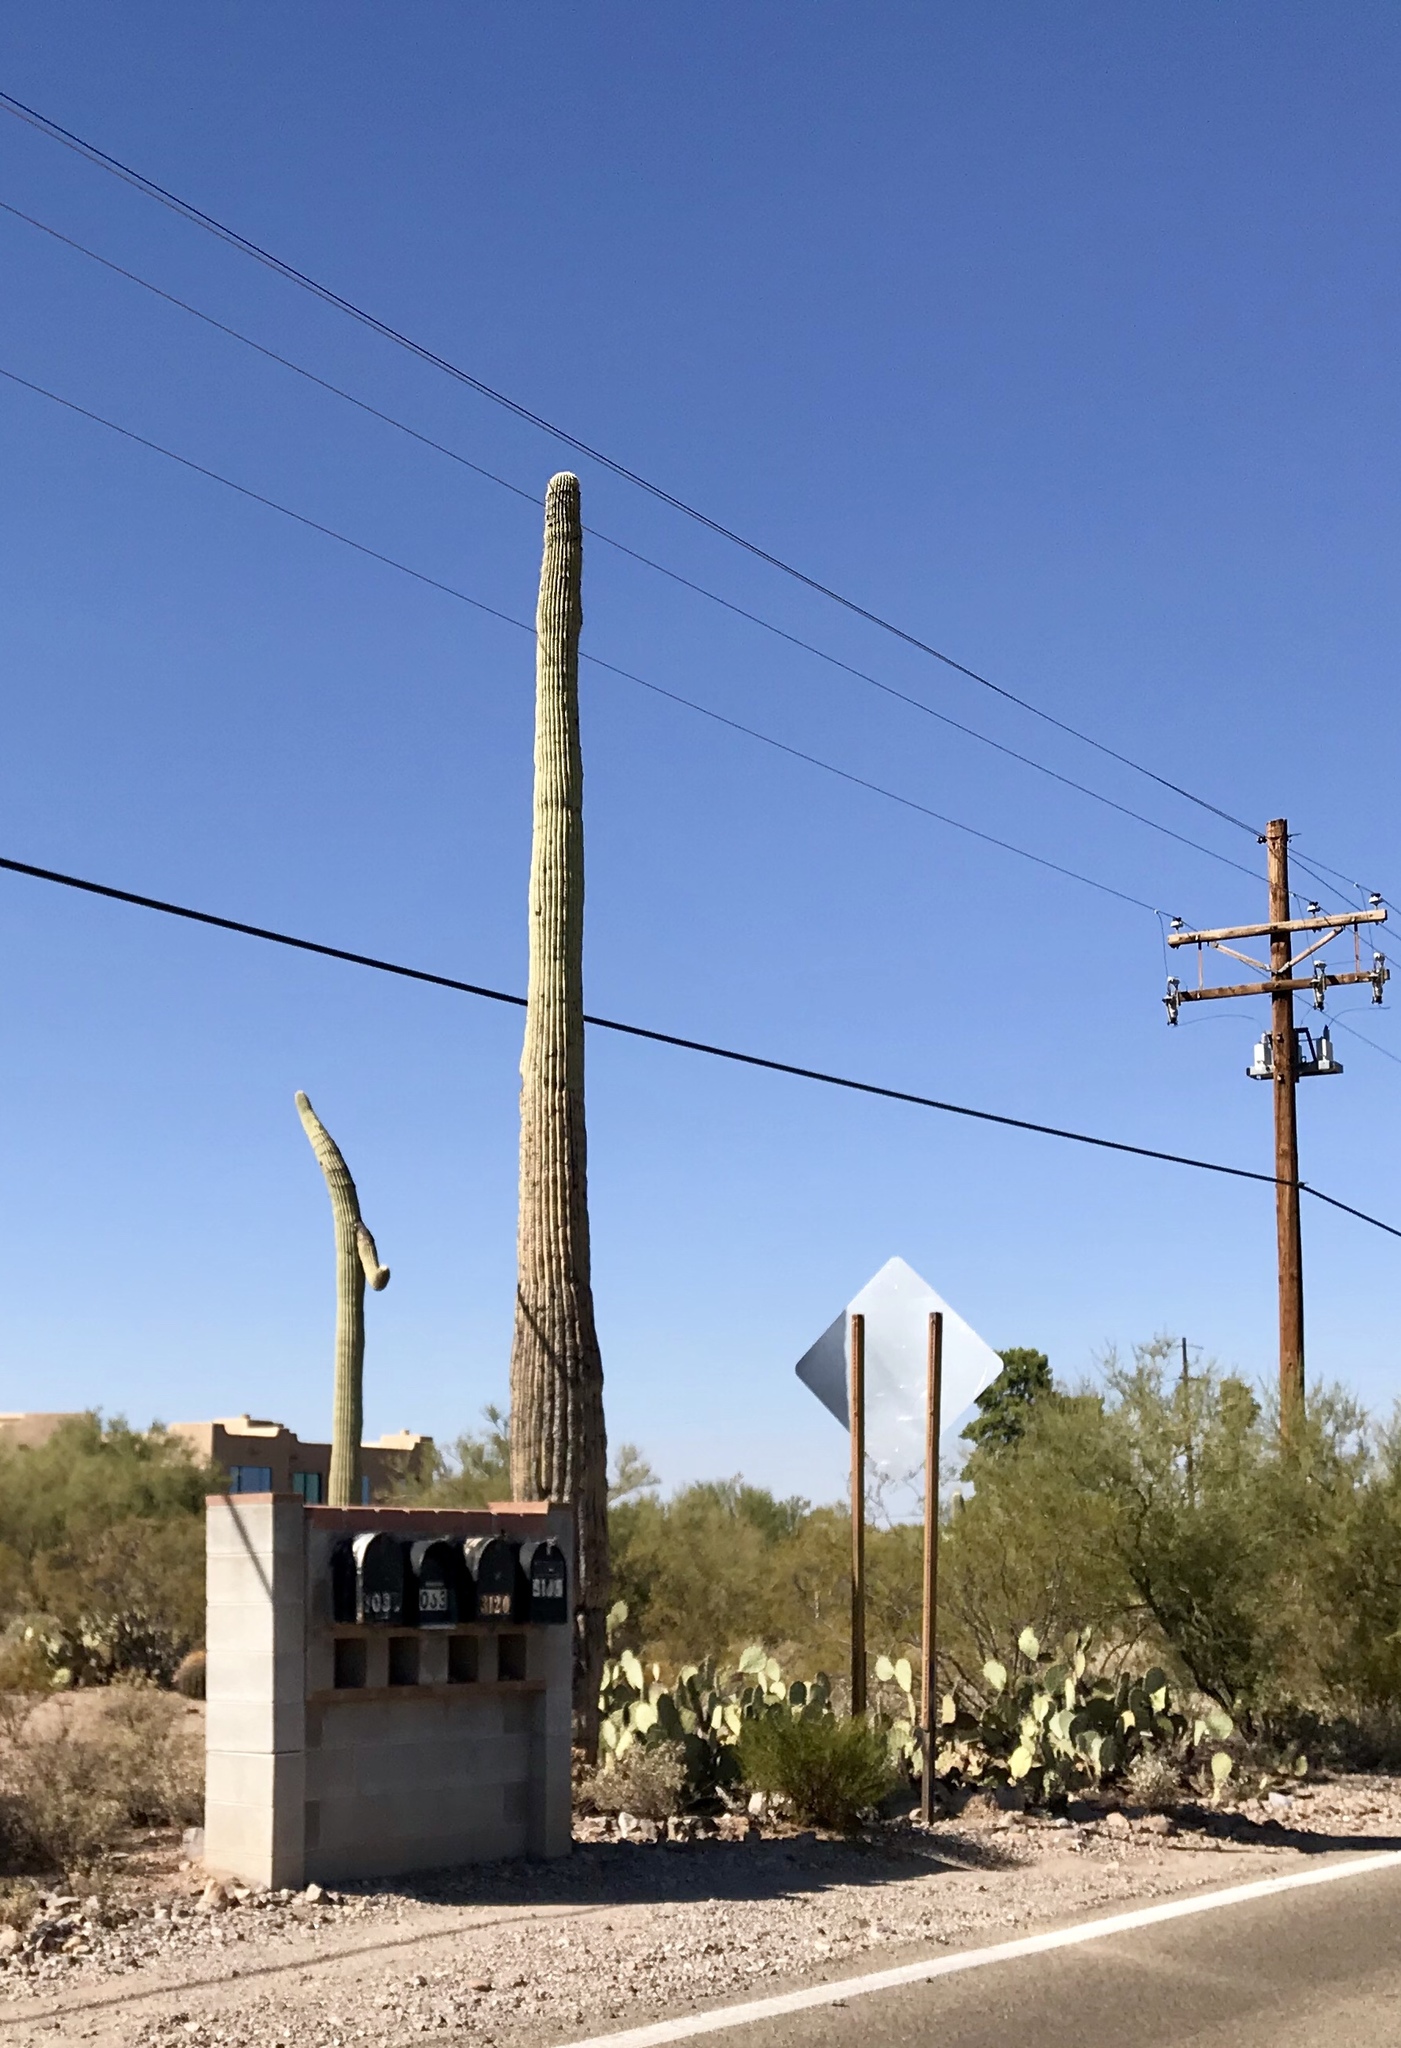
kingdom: Plantae
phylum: Tracheophyta
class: Magnoliopsida
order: Caryophyllales
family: Cactaceae
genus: Carnegiea
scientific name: Carnegiea gigantea
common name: Saguaro
